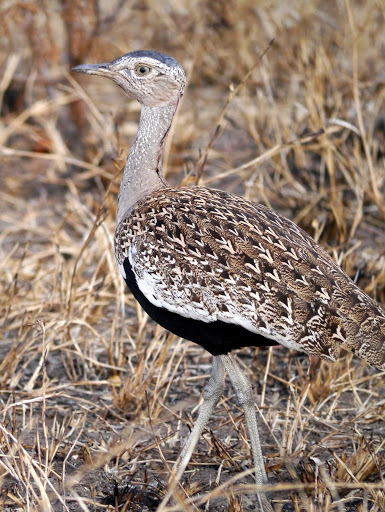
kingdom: Animalia
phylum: Chordata
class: Aves
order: Otidiformes
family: Otididae
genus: Lophotis
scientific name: Lophotis ruficrista
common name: Red-crested korhaan
